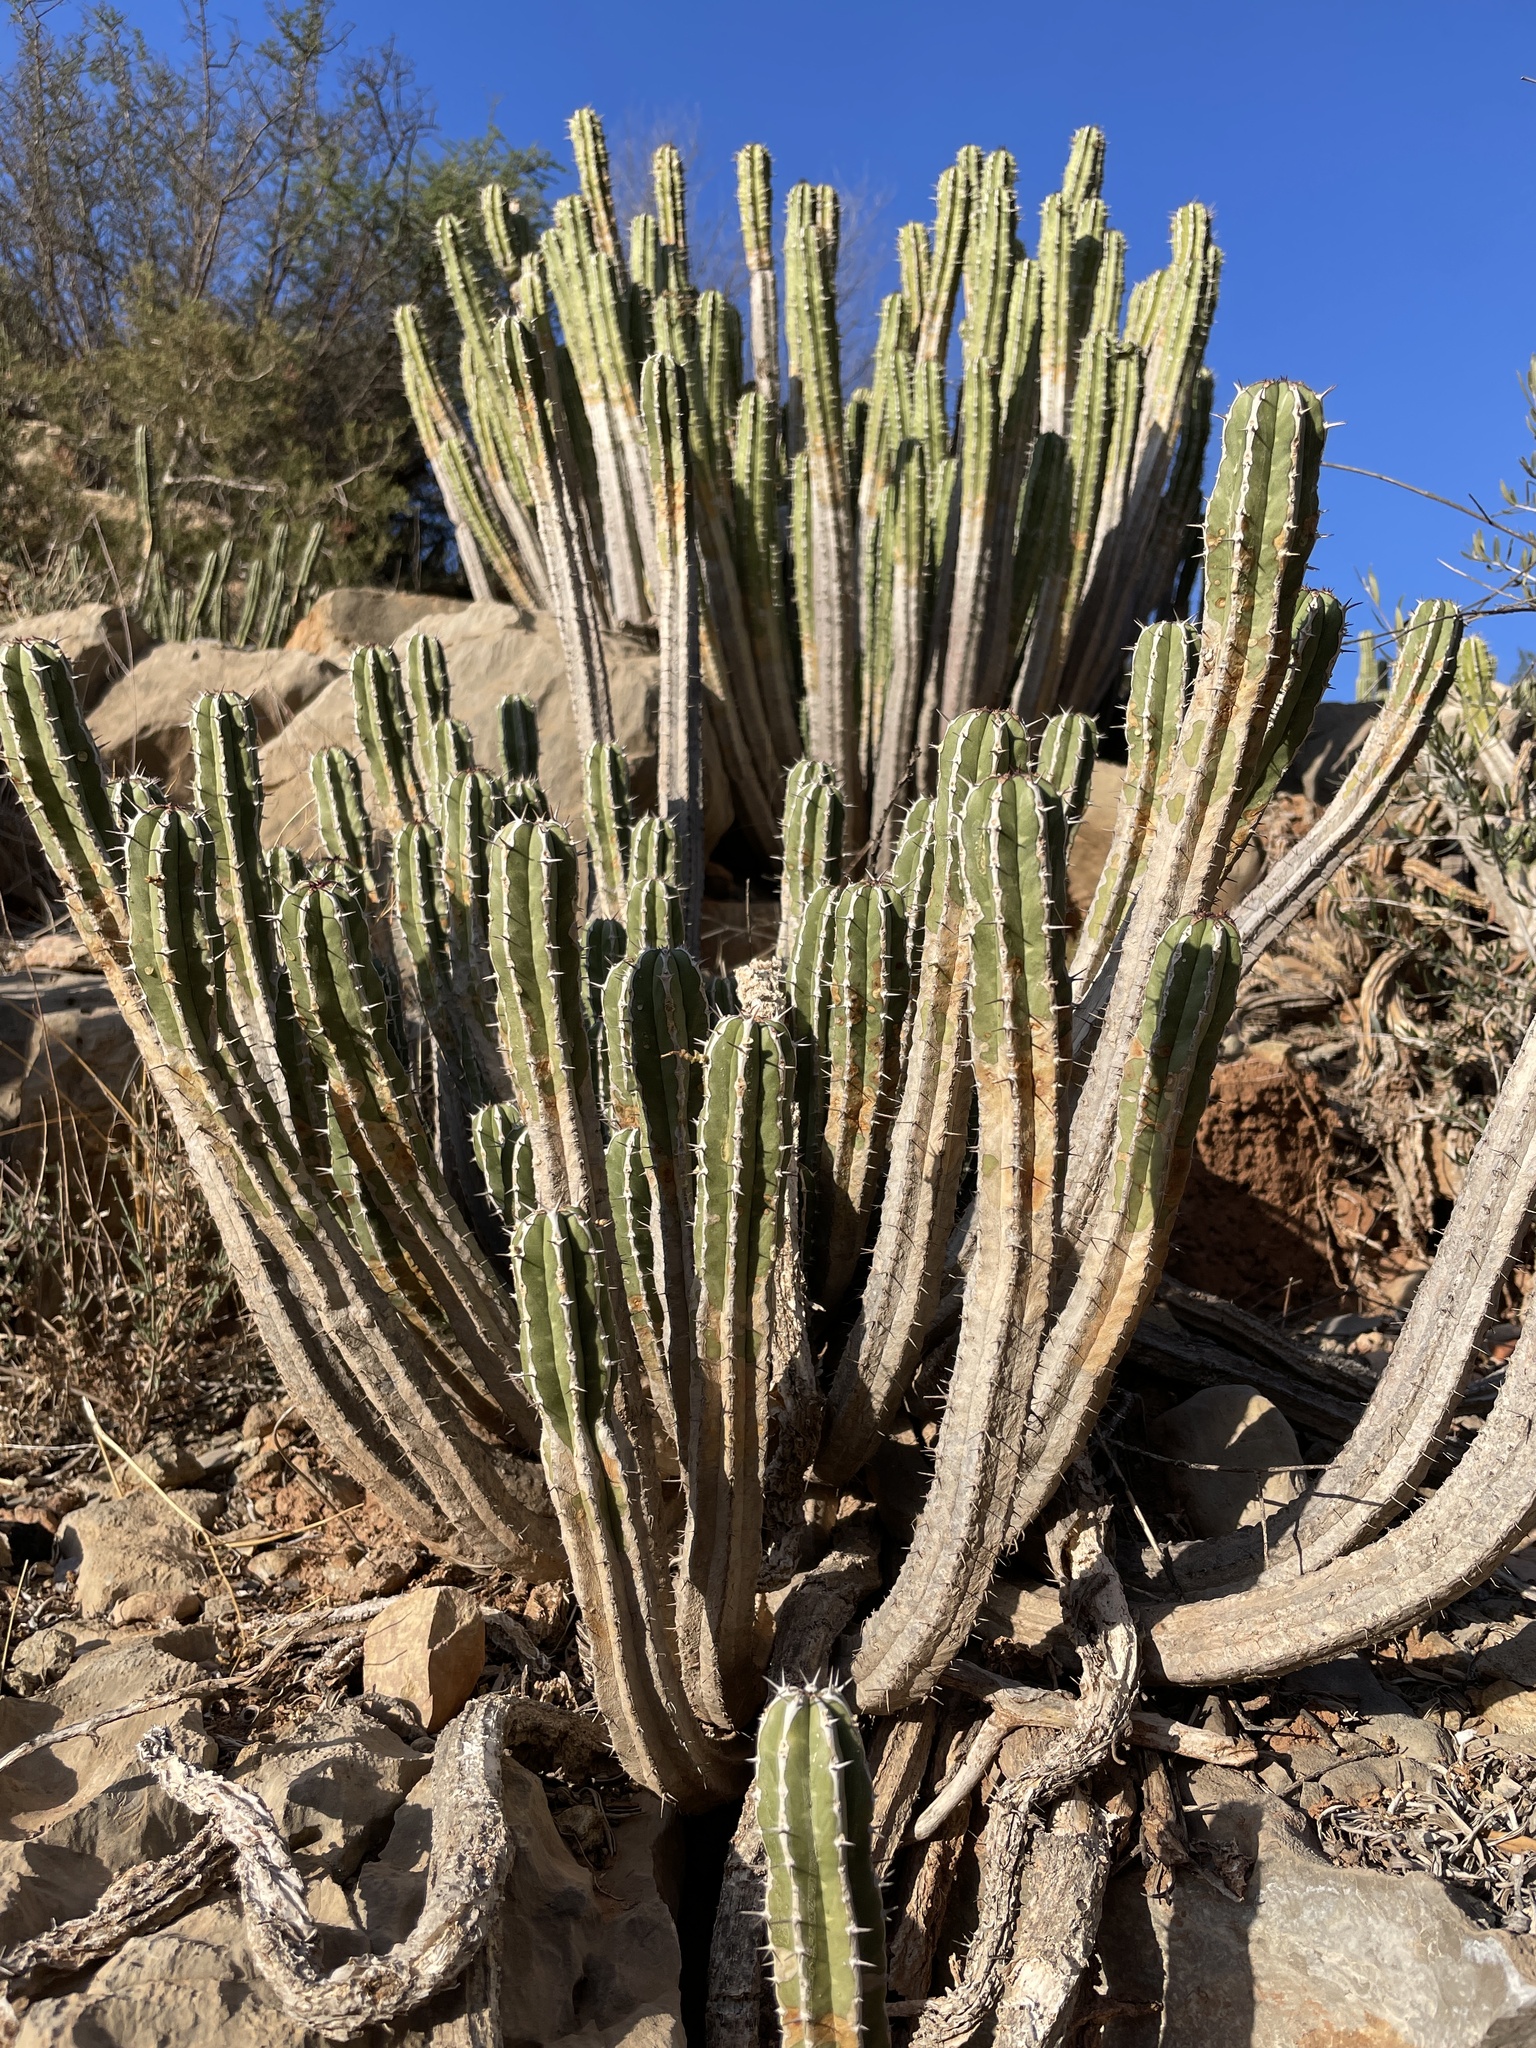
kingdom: Plantae
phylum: Tracheophyta
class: Magnoliopsida
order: Malpighiales
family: Euphorbiaceae
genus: Euphorbia
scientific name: Euphorbia officinarum
